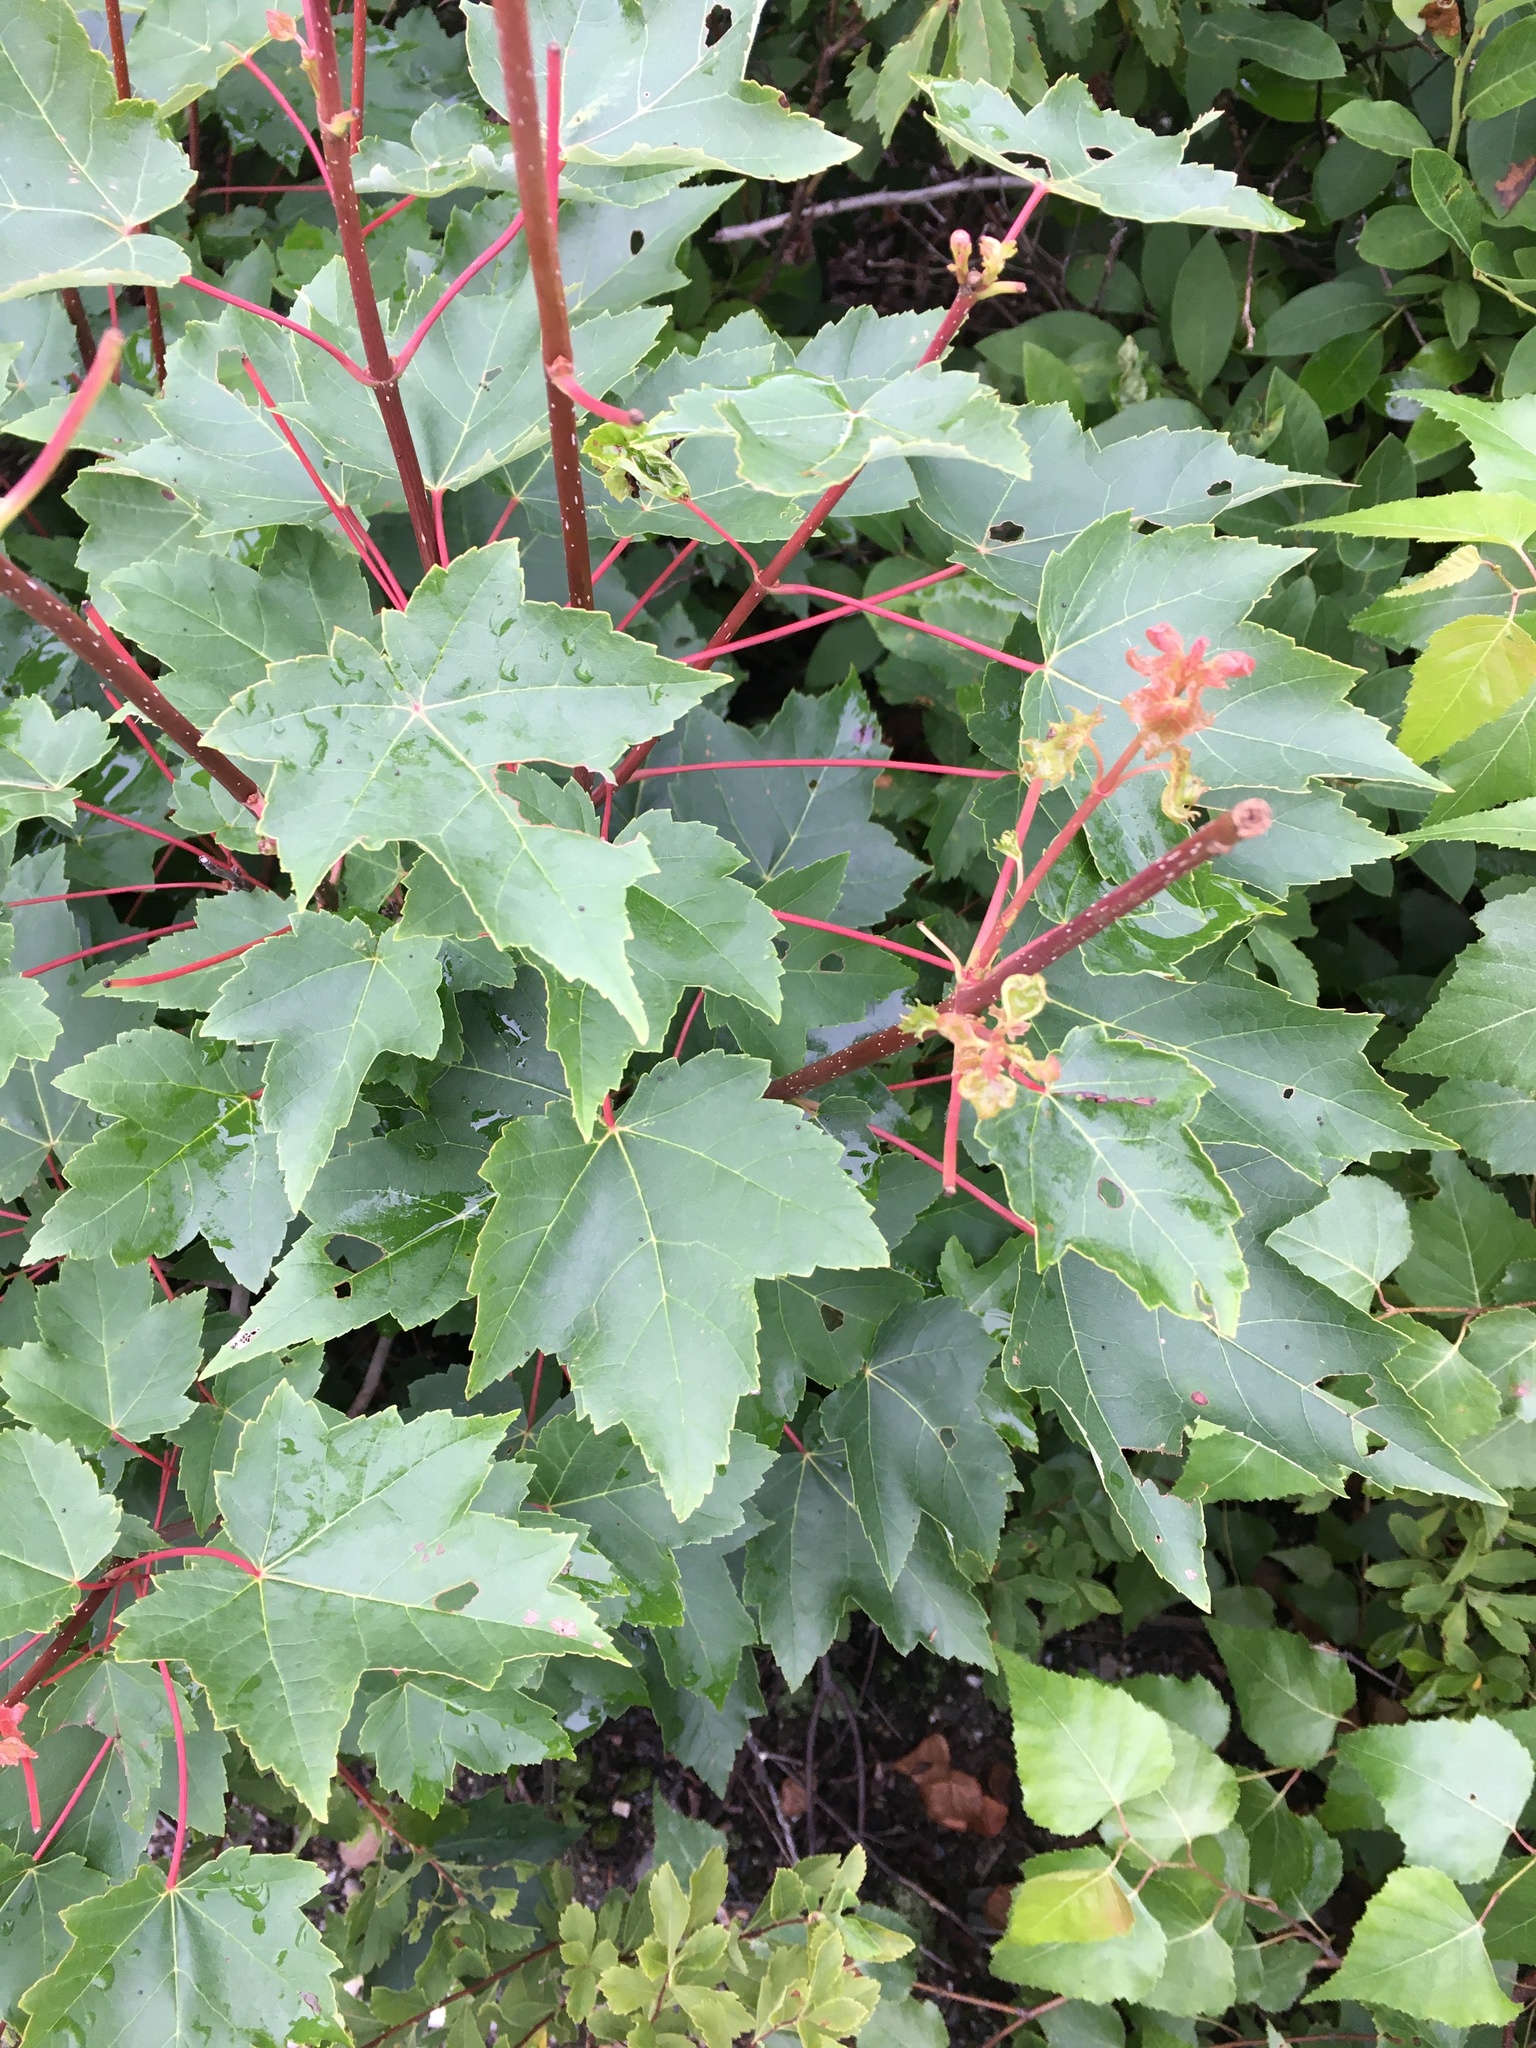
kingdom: Plantae
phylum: Tracheophyta
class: Magnoliopsida
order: Sapindales
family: Sapindaceae
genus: Acer
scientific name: Acer rubrum
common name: Red maple
